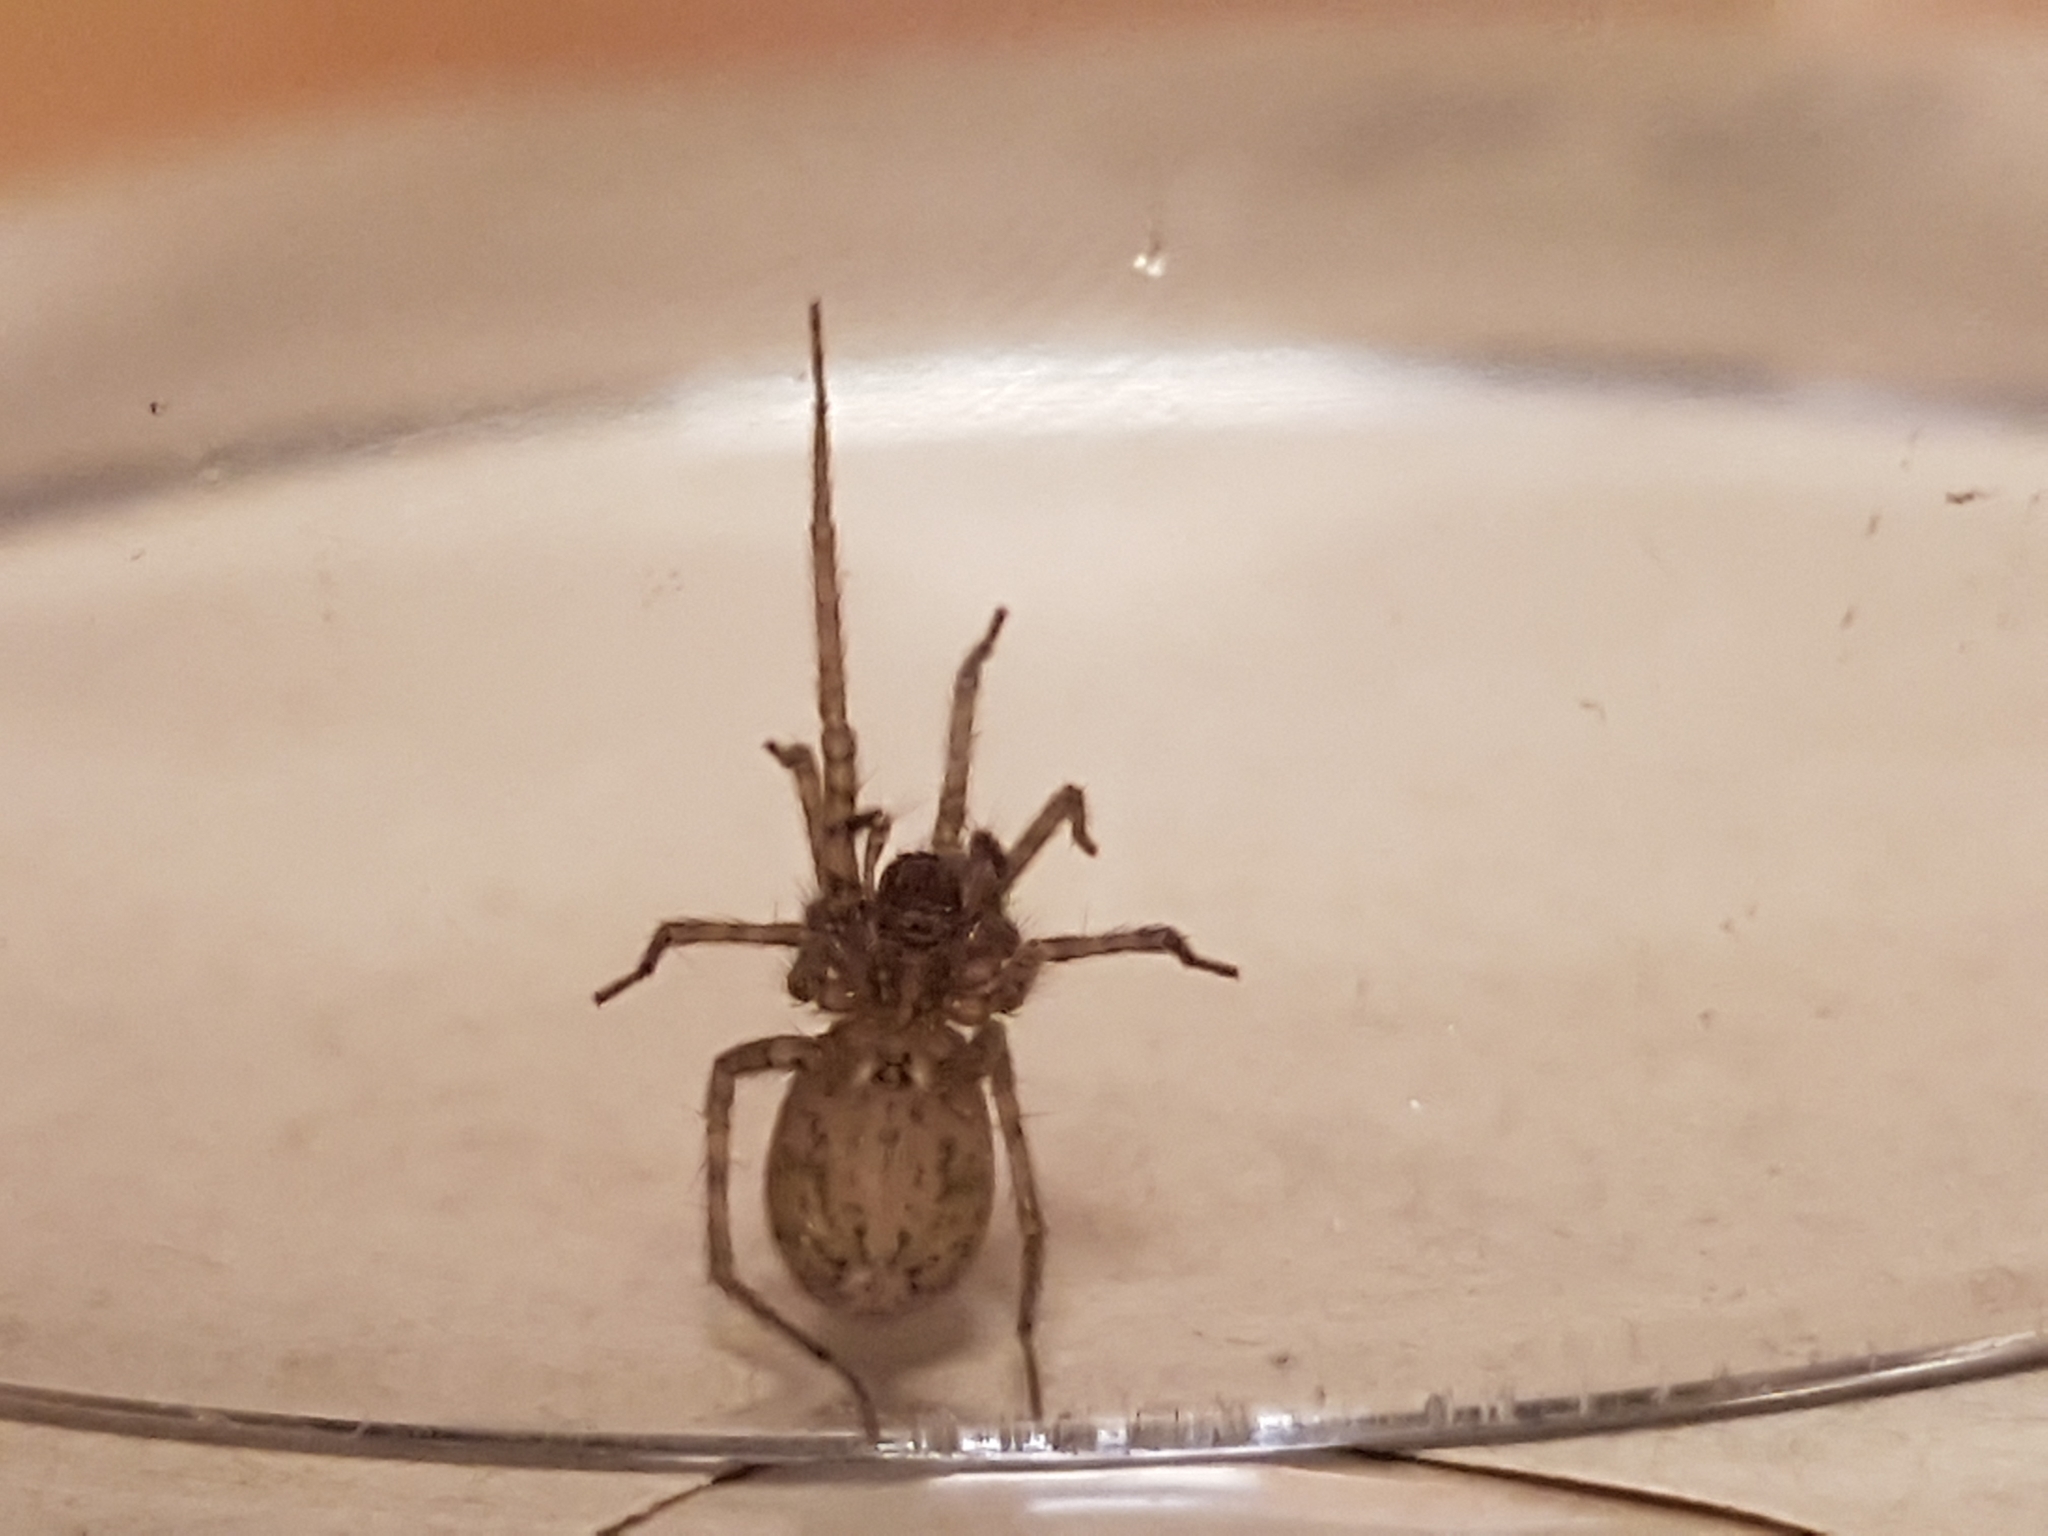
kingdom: Animalia
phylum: Arthropoda
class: Arachnida
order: Araneae
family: Agelenidae
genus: Tegenaria
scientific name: Tegenaria domestica
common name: Barn funnel weaver
